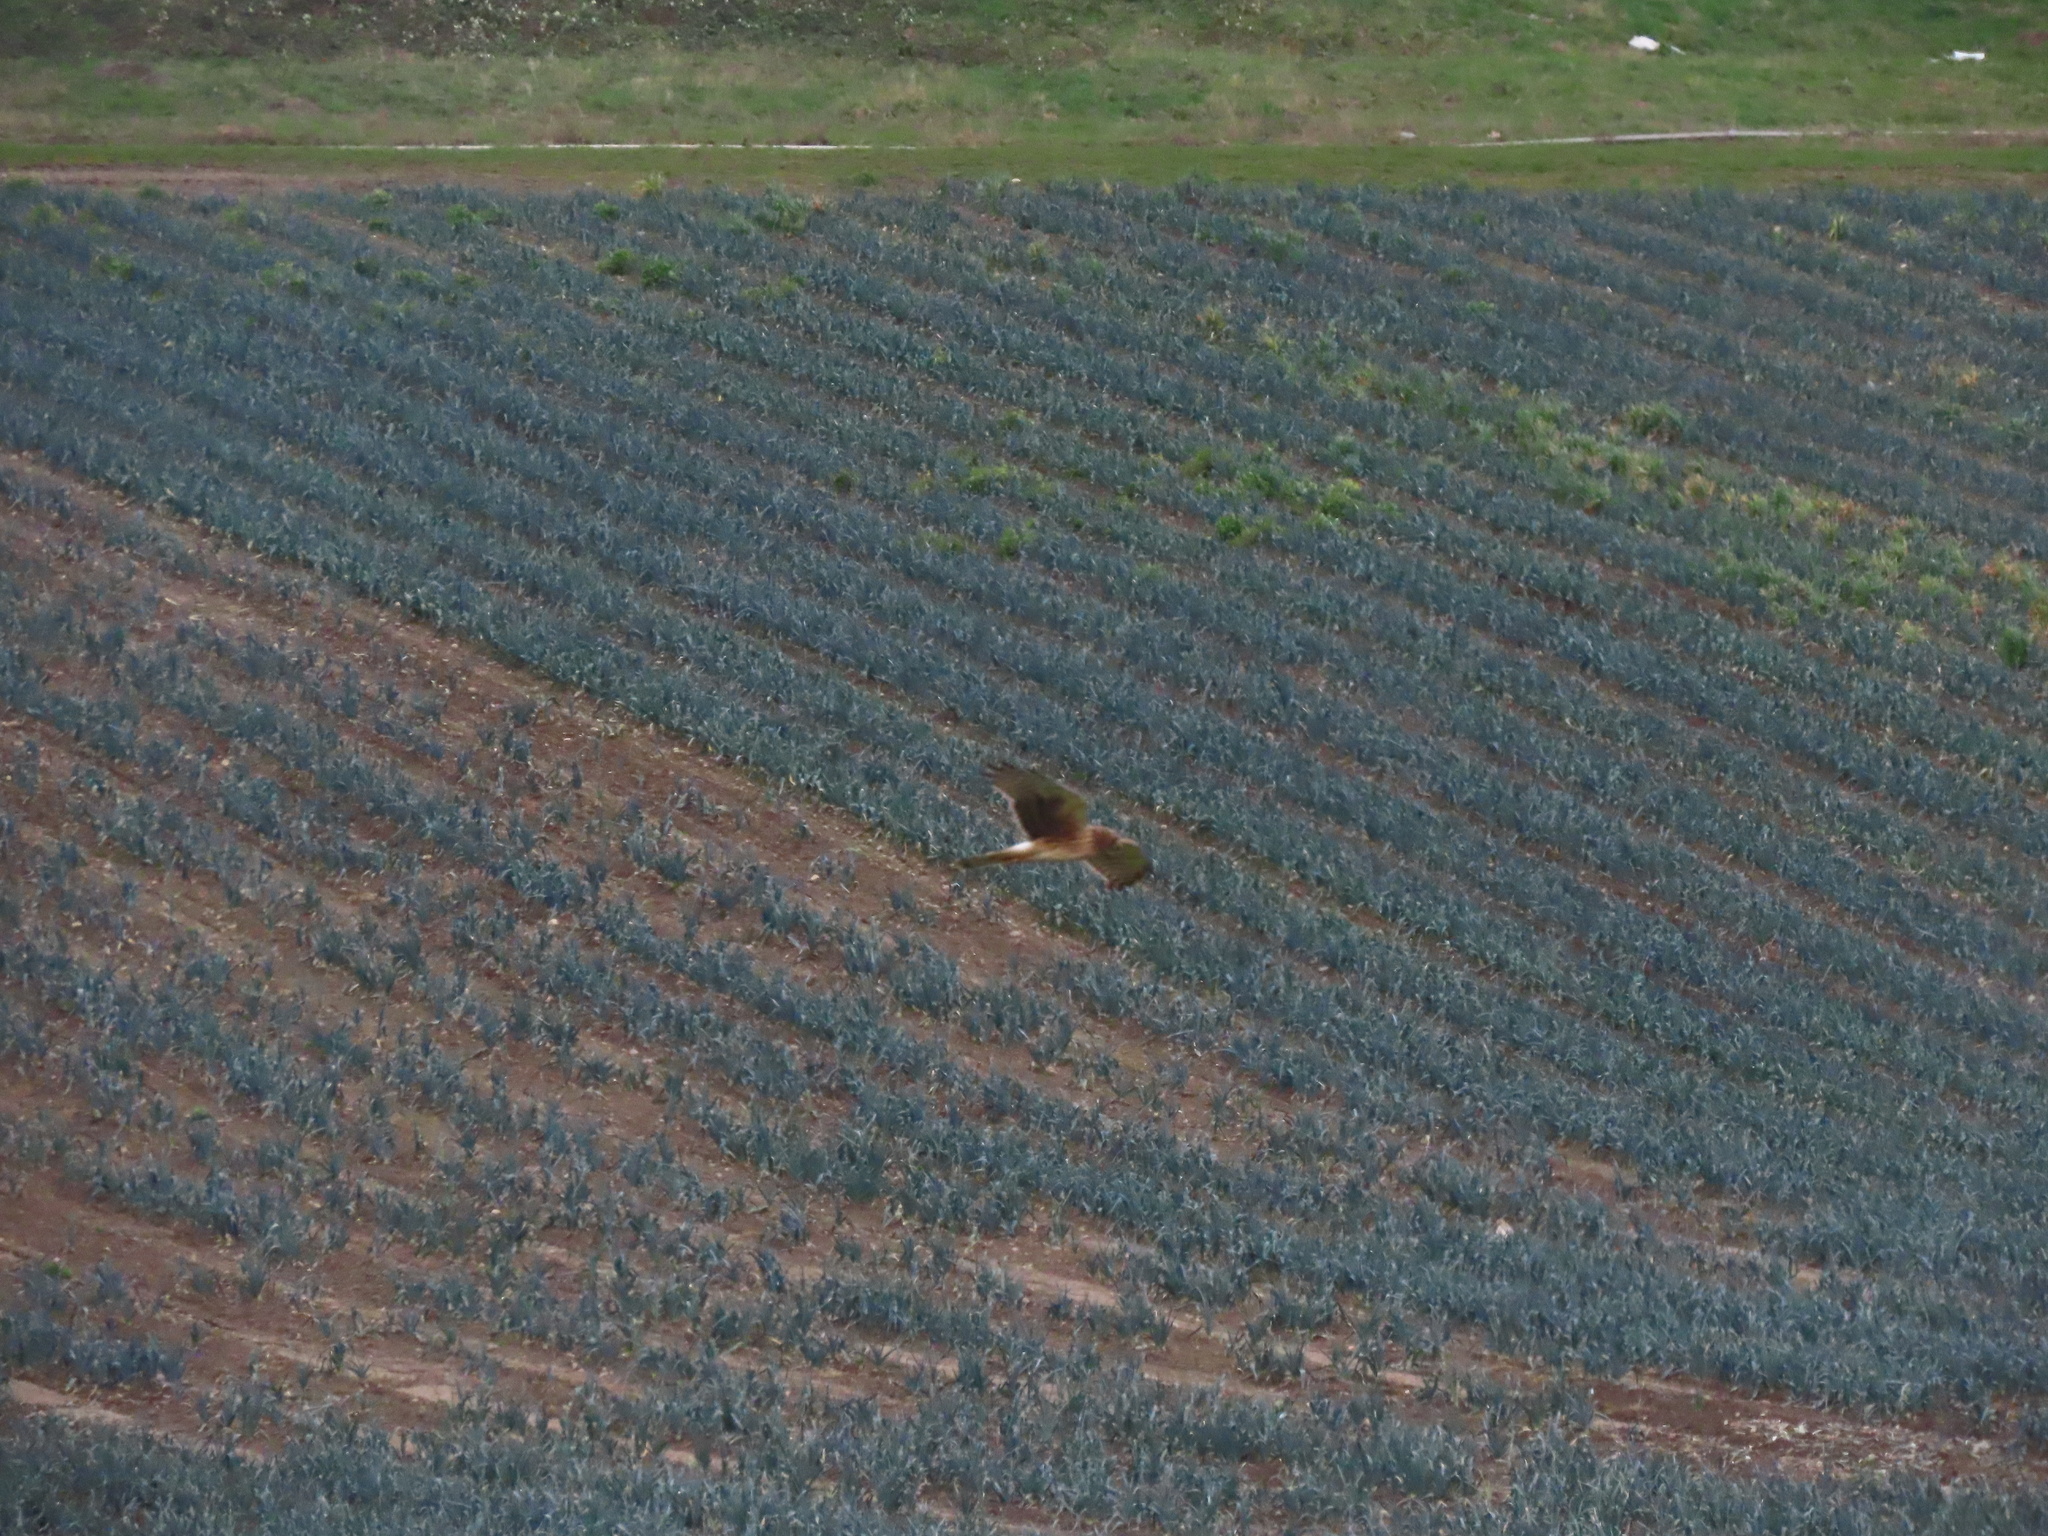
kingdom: Animalia
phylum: Chordata
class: Aves
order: Accipitriformes
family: Accipitridae
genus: Circus
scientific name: Circus cyaneus
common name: Hen harrier
